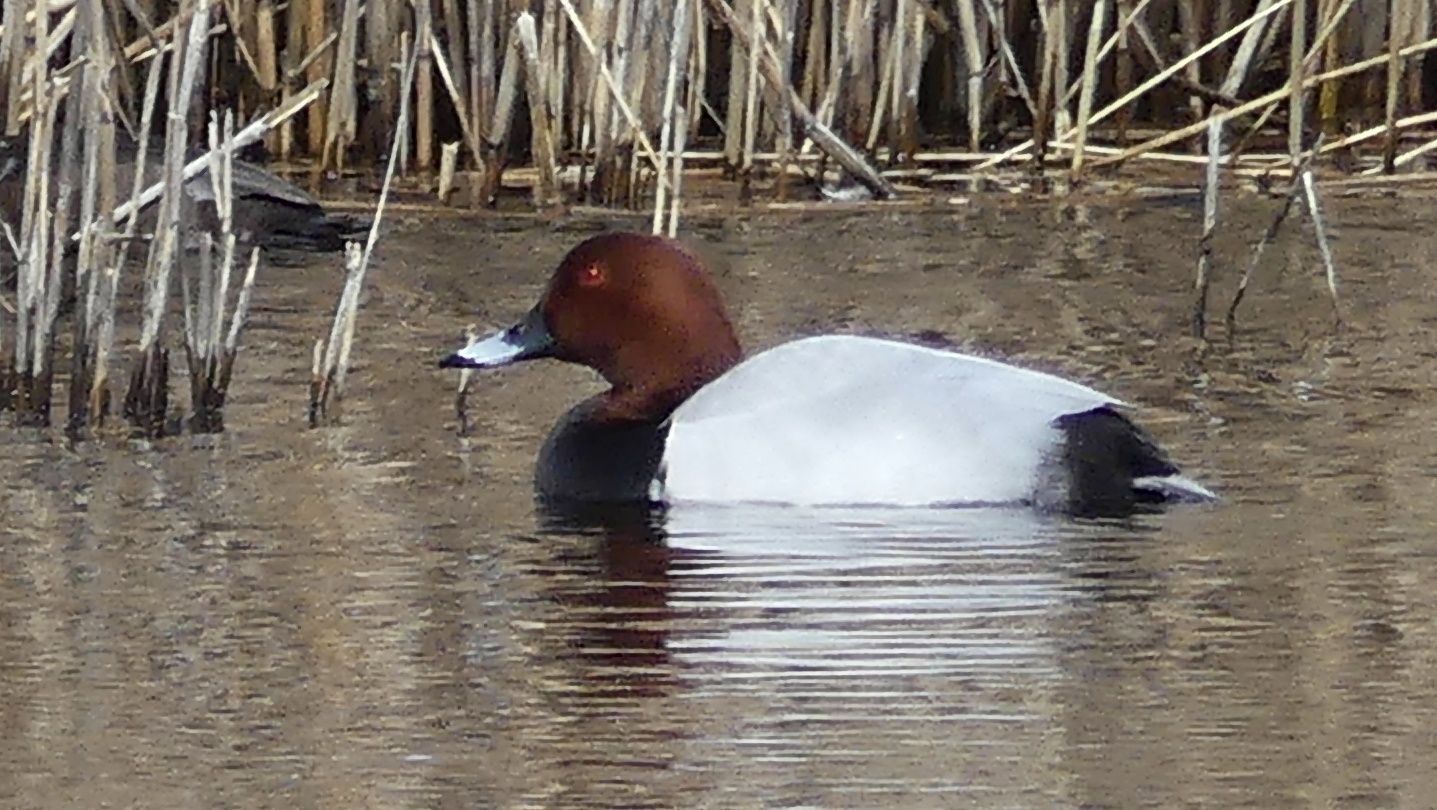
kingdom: Animalia
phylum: Chordata
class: Aves
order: Anseriformes
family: Anatidae
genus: Aythya
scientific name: Aythya ferina
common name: Common pochard
